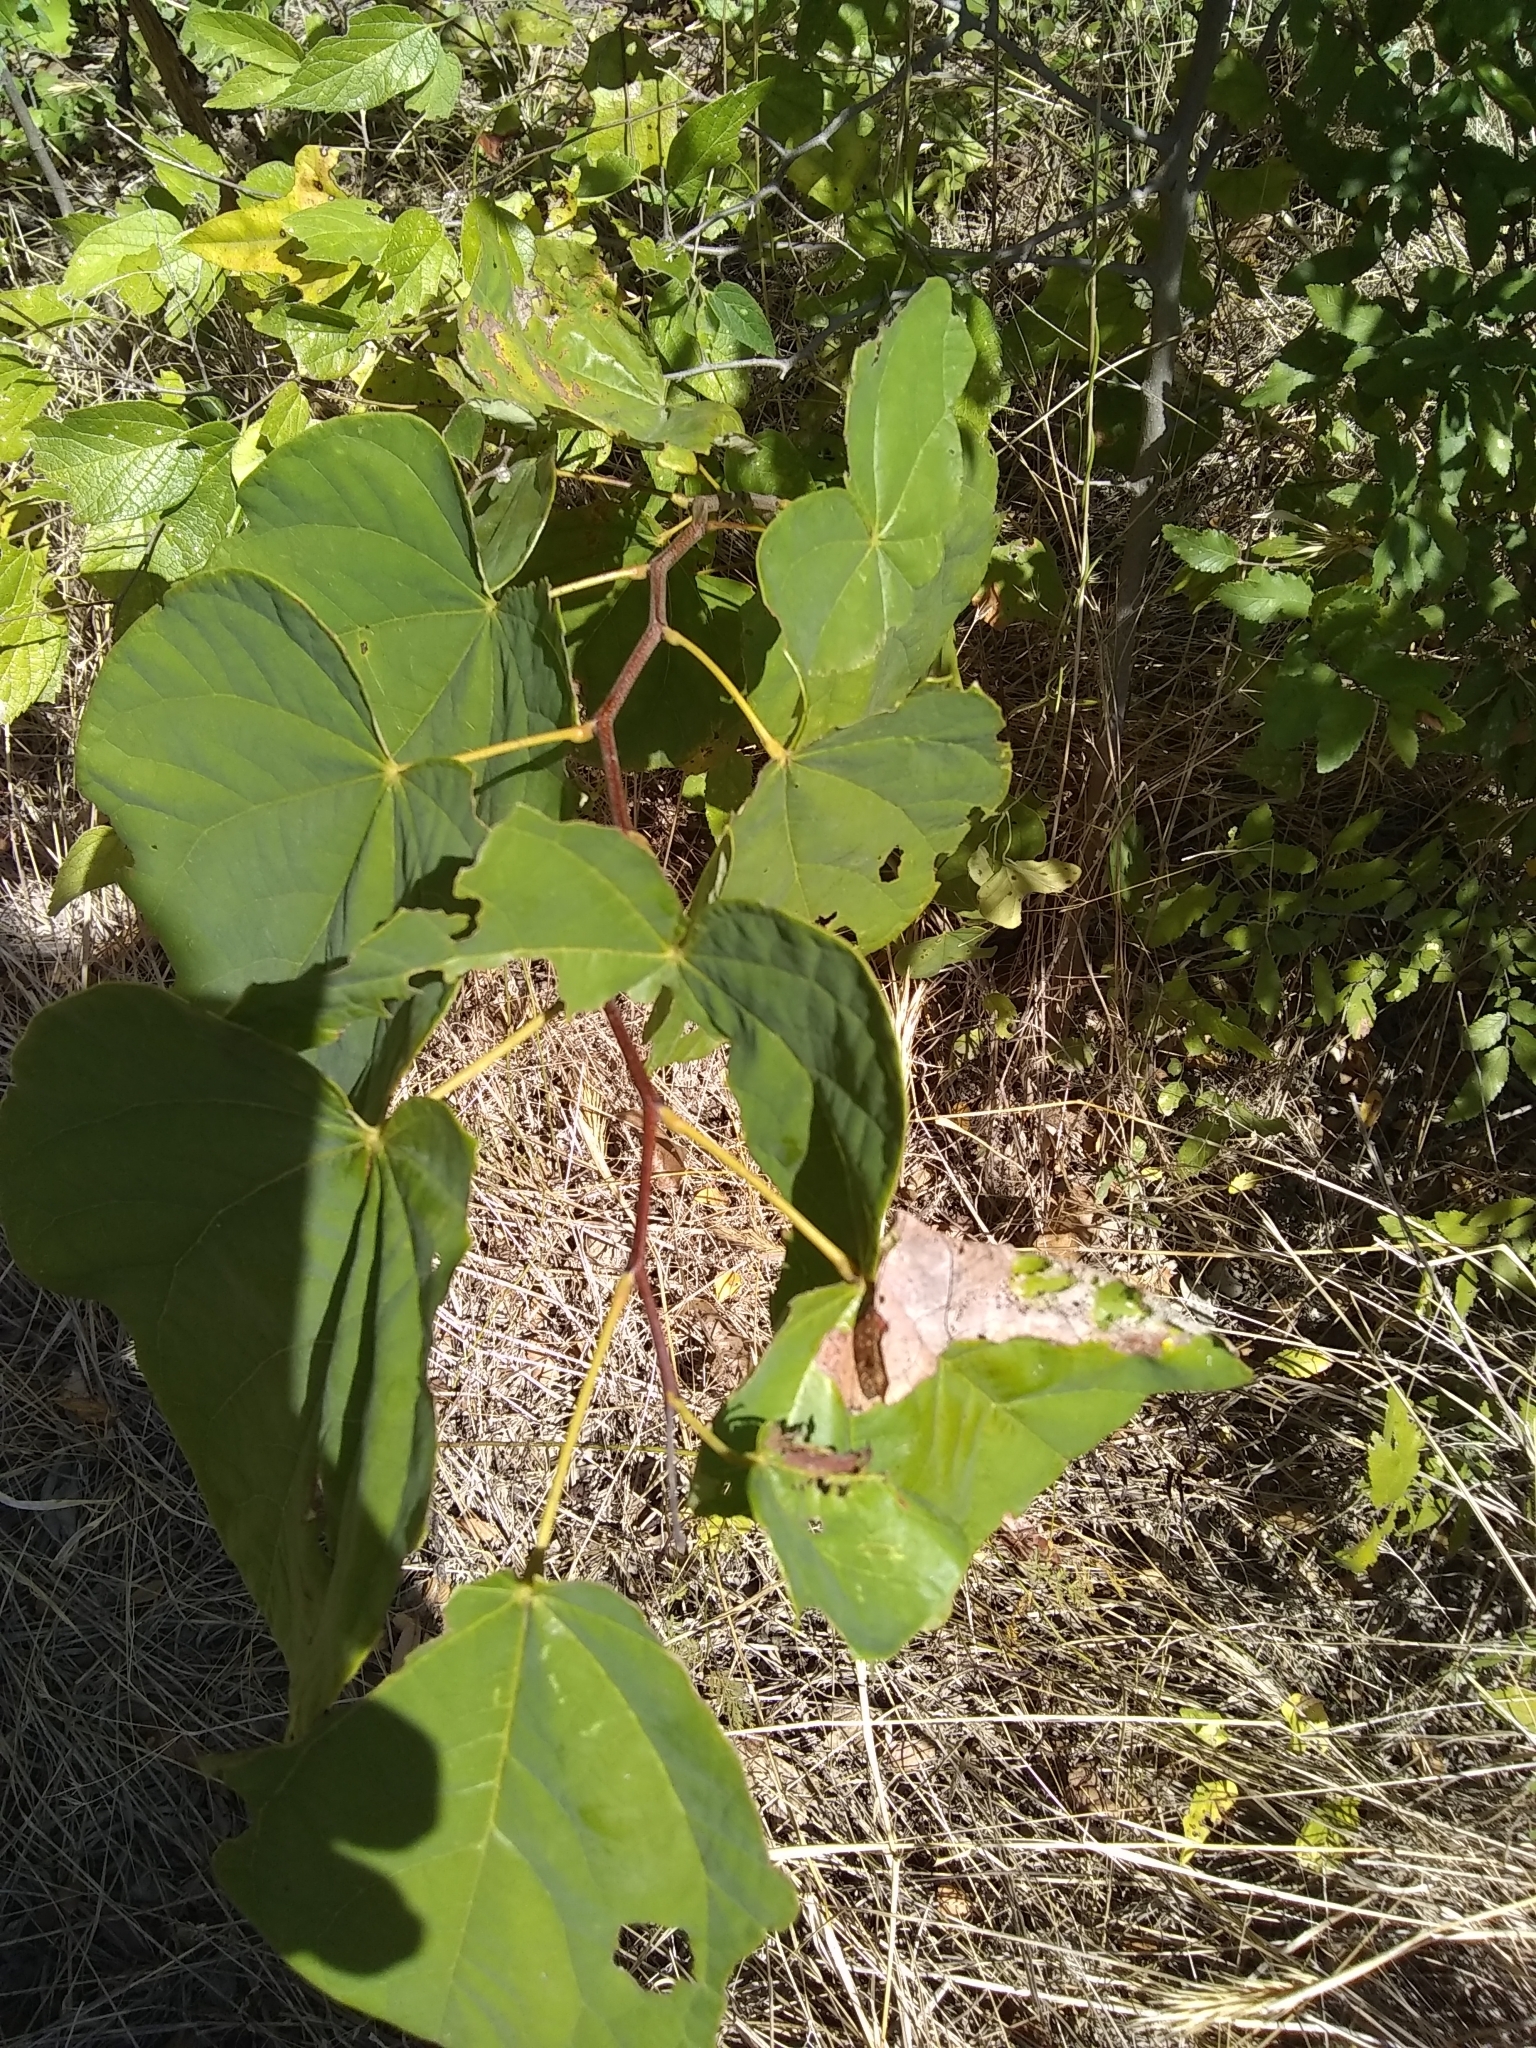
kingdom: Plantae
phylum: Tracheophyta
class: Magnoliopsida
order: Fabales
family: Fabaceae
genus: Cercis
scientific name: Cercis canadensis
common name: Eastern redbud
